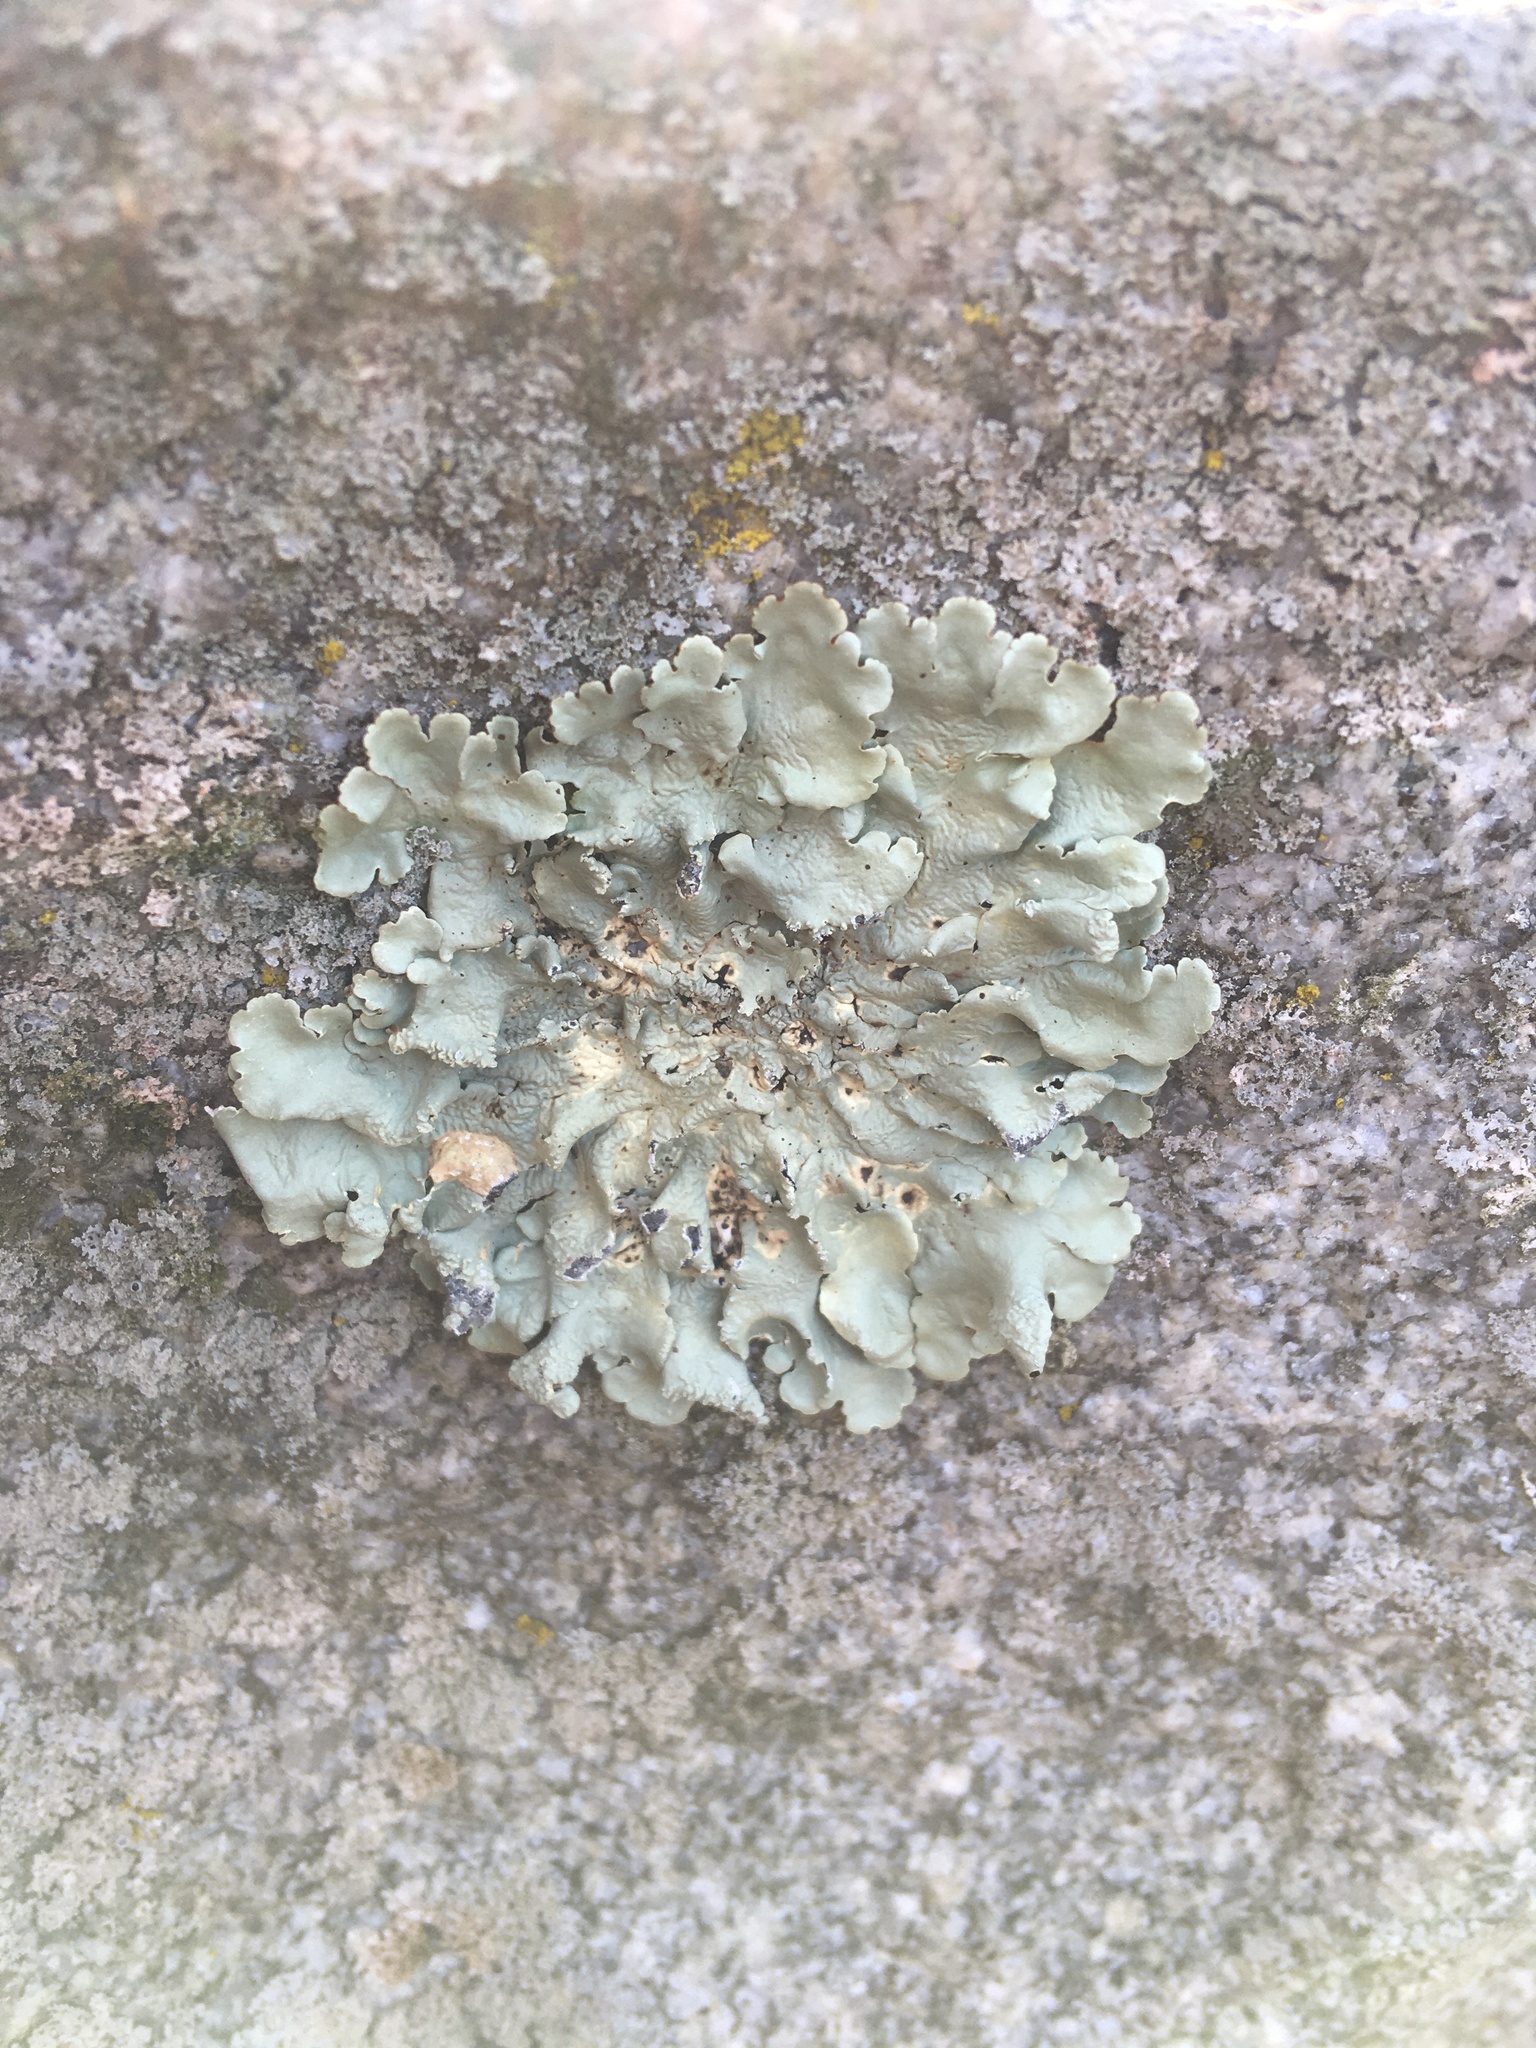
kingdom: Fungi
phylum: Ascomycota
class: Lecanoromycetes
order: Lecanorales
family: Parmeliaceae
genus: Flavoparmelia
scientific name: Flavoparmelia caperata
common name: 40-mile per hour lichen
